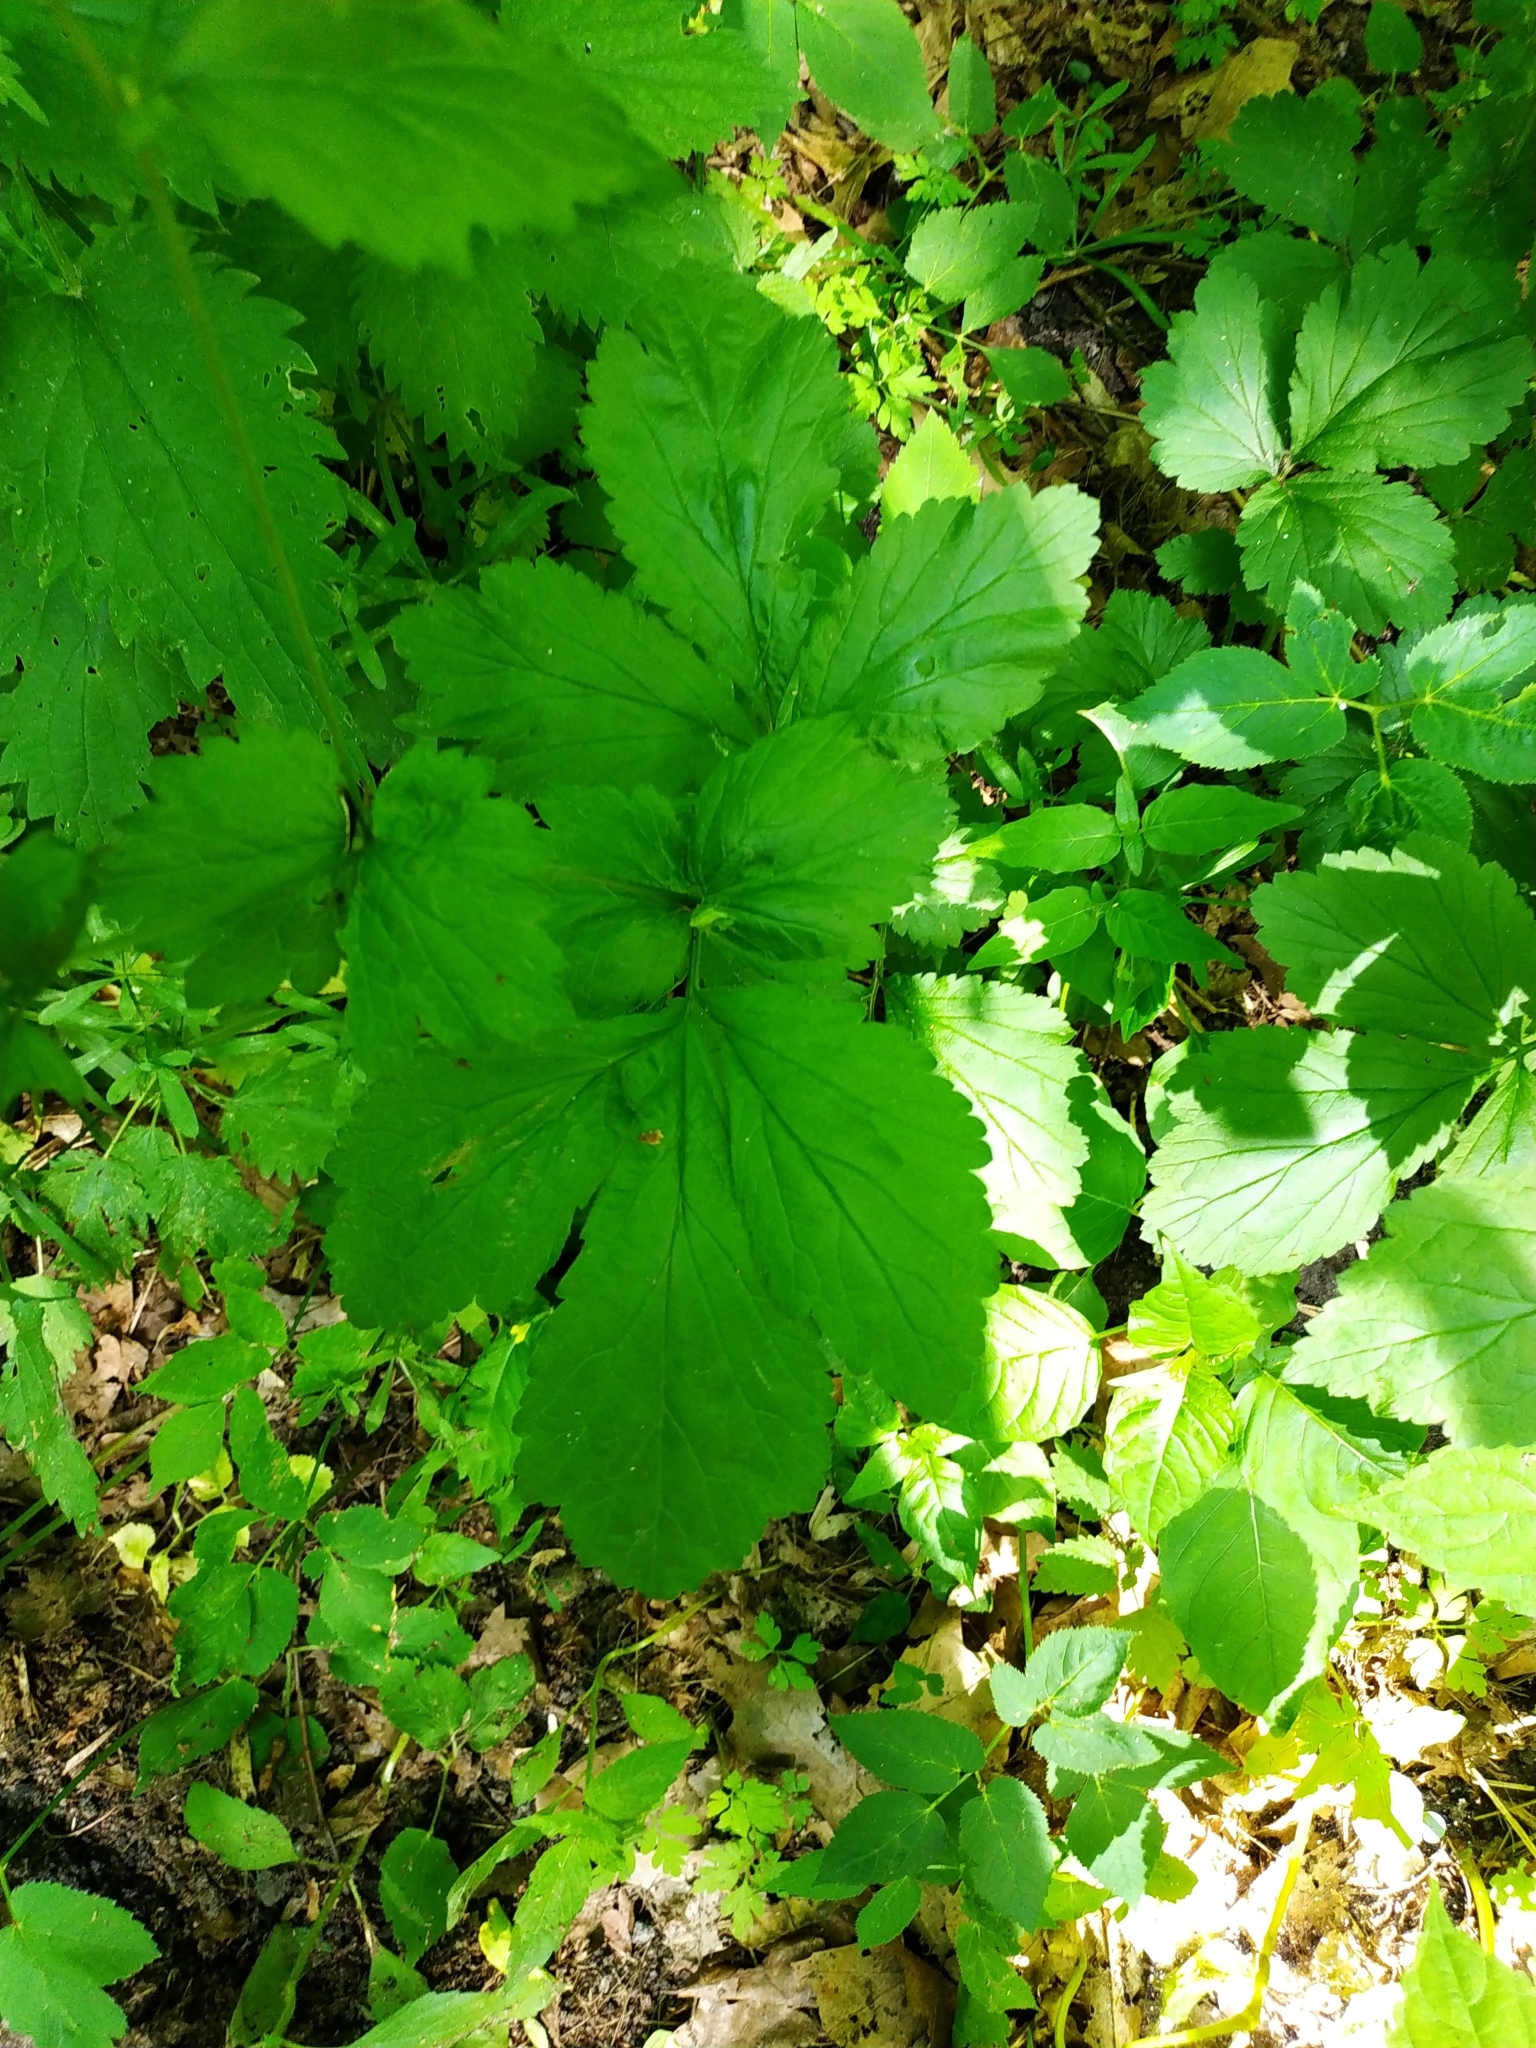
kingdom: Plantae
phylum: Tracheophyta
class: Magnoliopsida
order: Rosales
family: Rosaceae
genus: Geum
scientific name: Geum urbanum
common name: Wood avens
